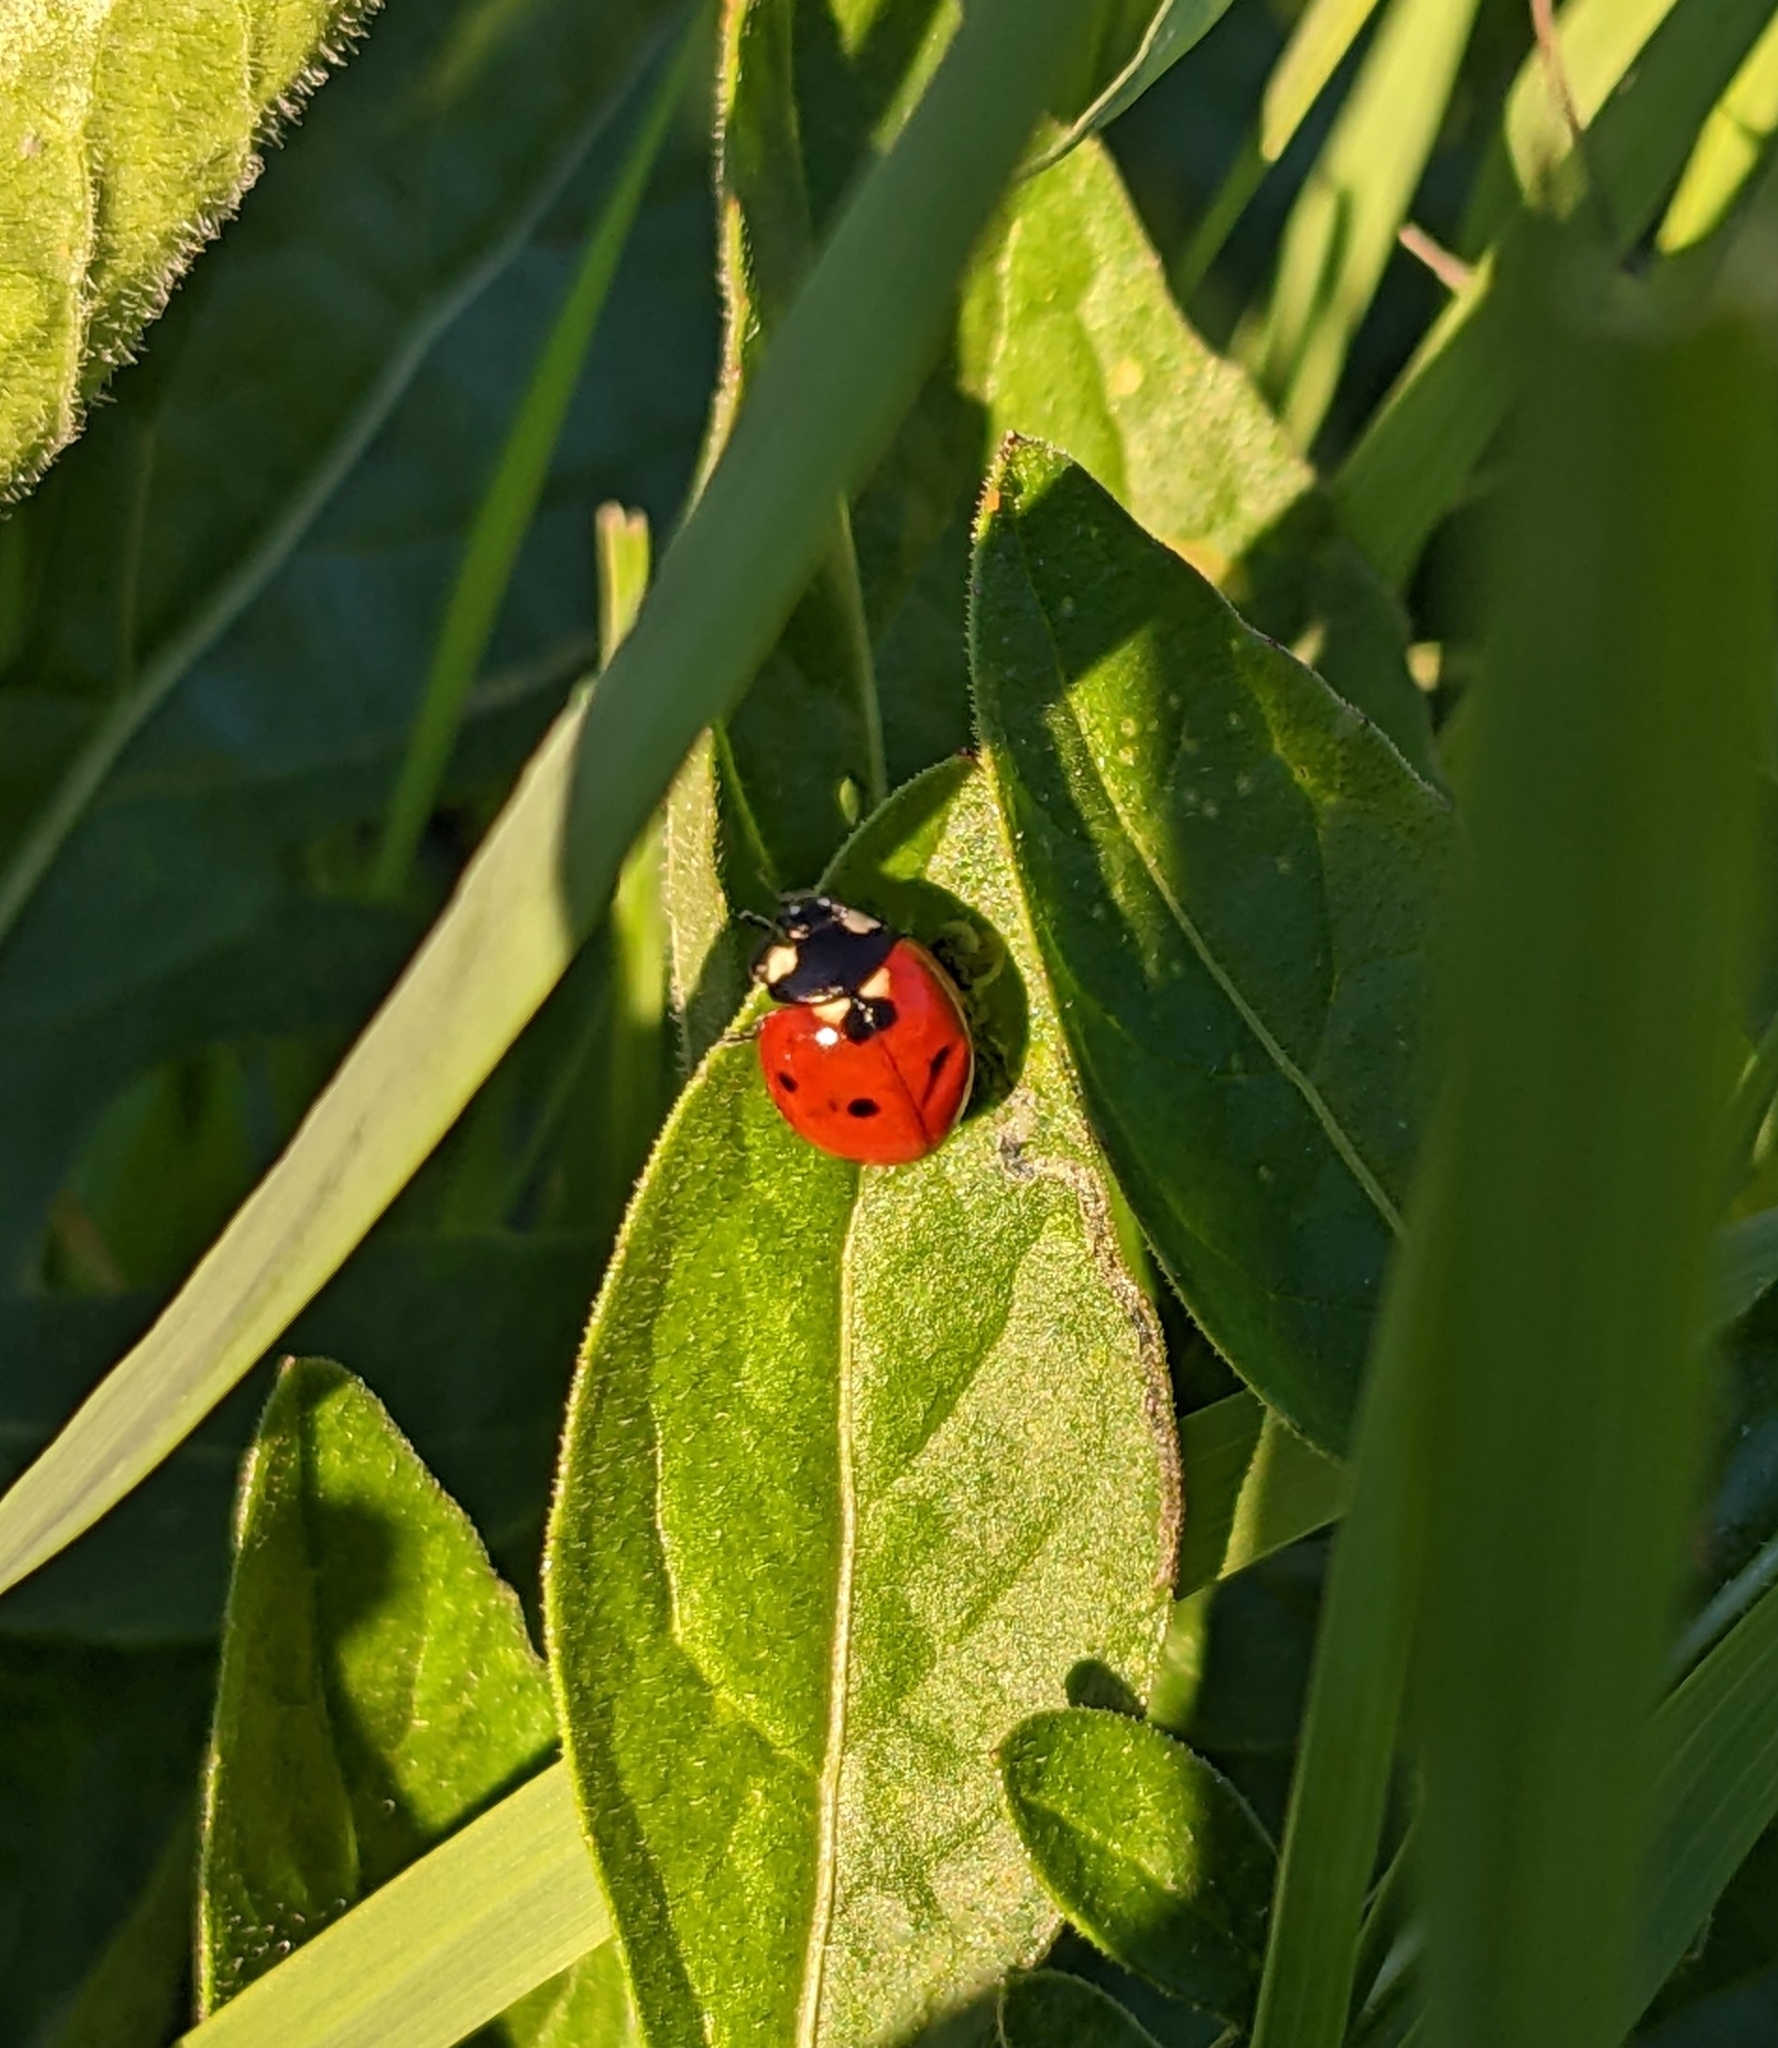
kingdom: Animalia
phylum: Arthropoda
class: Insecta
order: Coleoptera
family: Coccinellidae
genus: Coccinella
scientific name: Coccinella septempunctata
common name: Sevenspotted lady beetle
